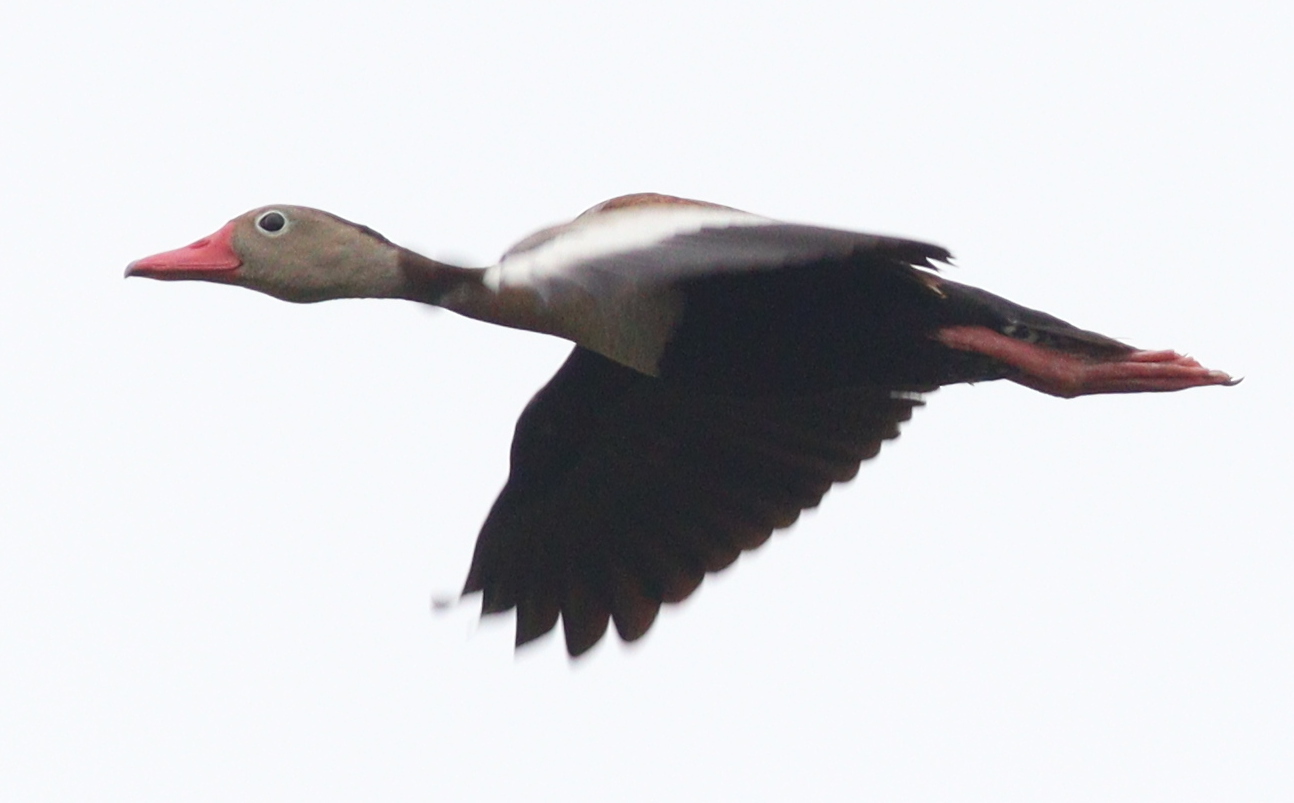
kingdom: Animalia
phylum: Chordata
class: Aves
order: Anseriformes
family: Anatidae
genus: Dendrocygna
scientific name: Dendrocygna autumnalis
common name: Black-bellied whistling duck
